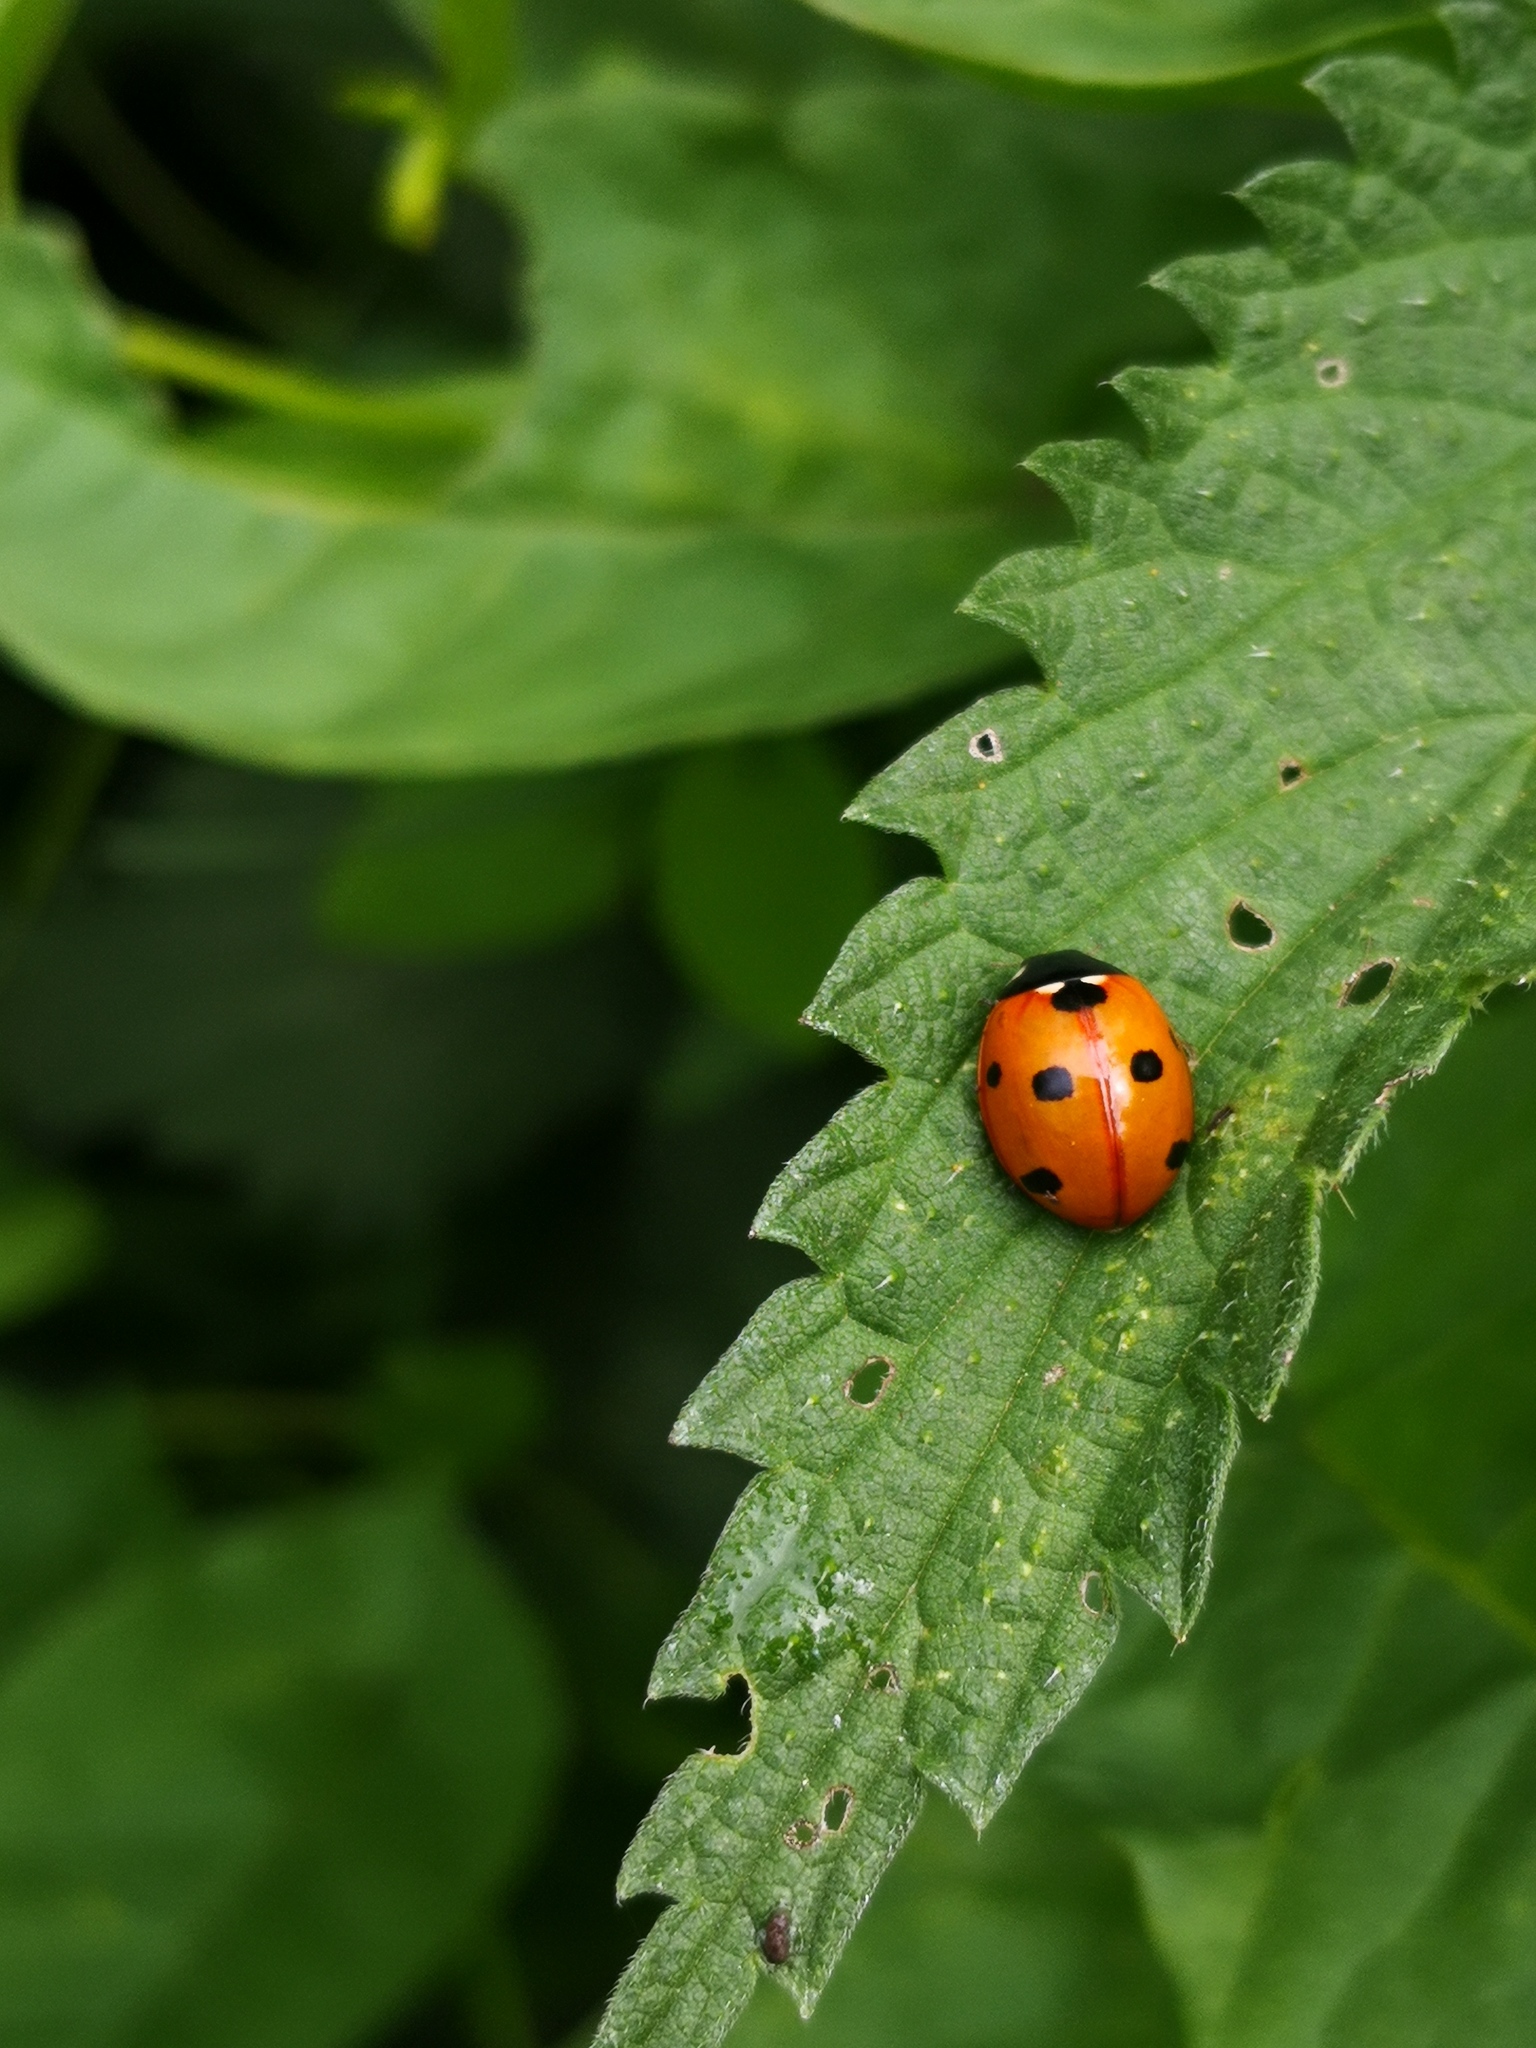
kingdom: Animalia
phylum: Arthropoda
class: Insecta
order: Coleoptera
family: Coccinellidae
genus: Coccinella
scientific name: Coccinella septempunctata
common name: Sevenspotted lady beetle
